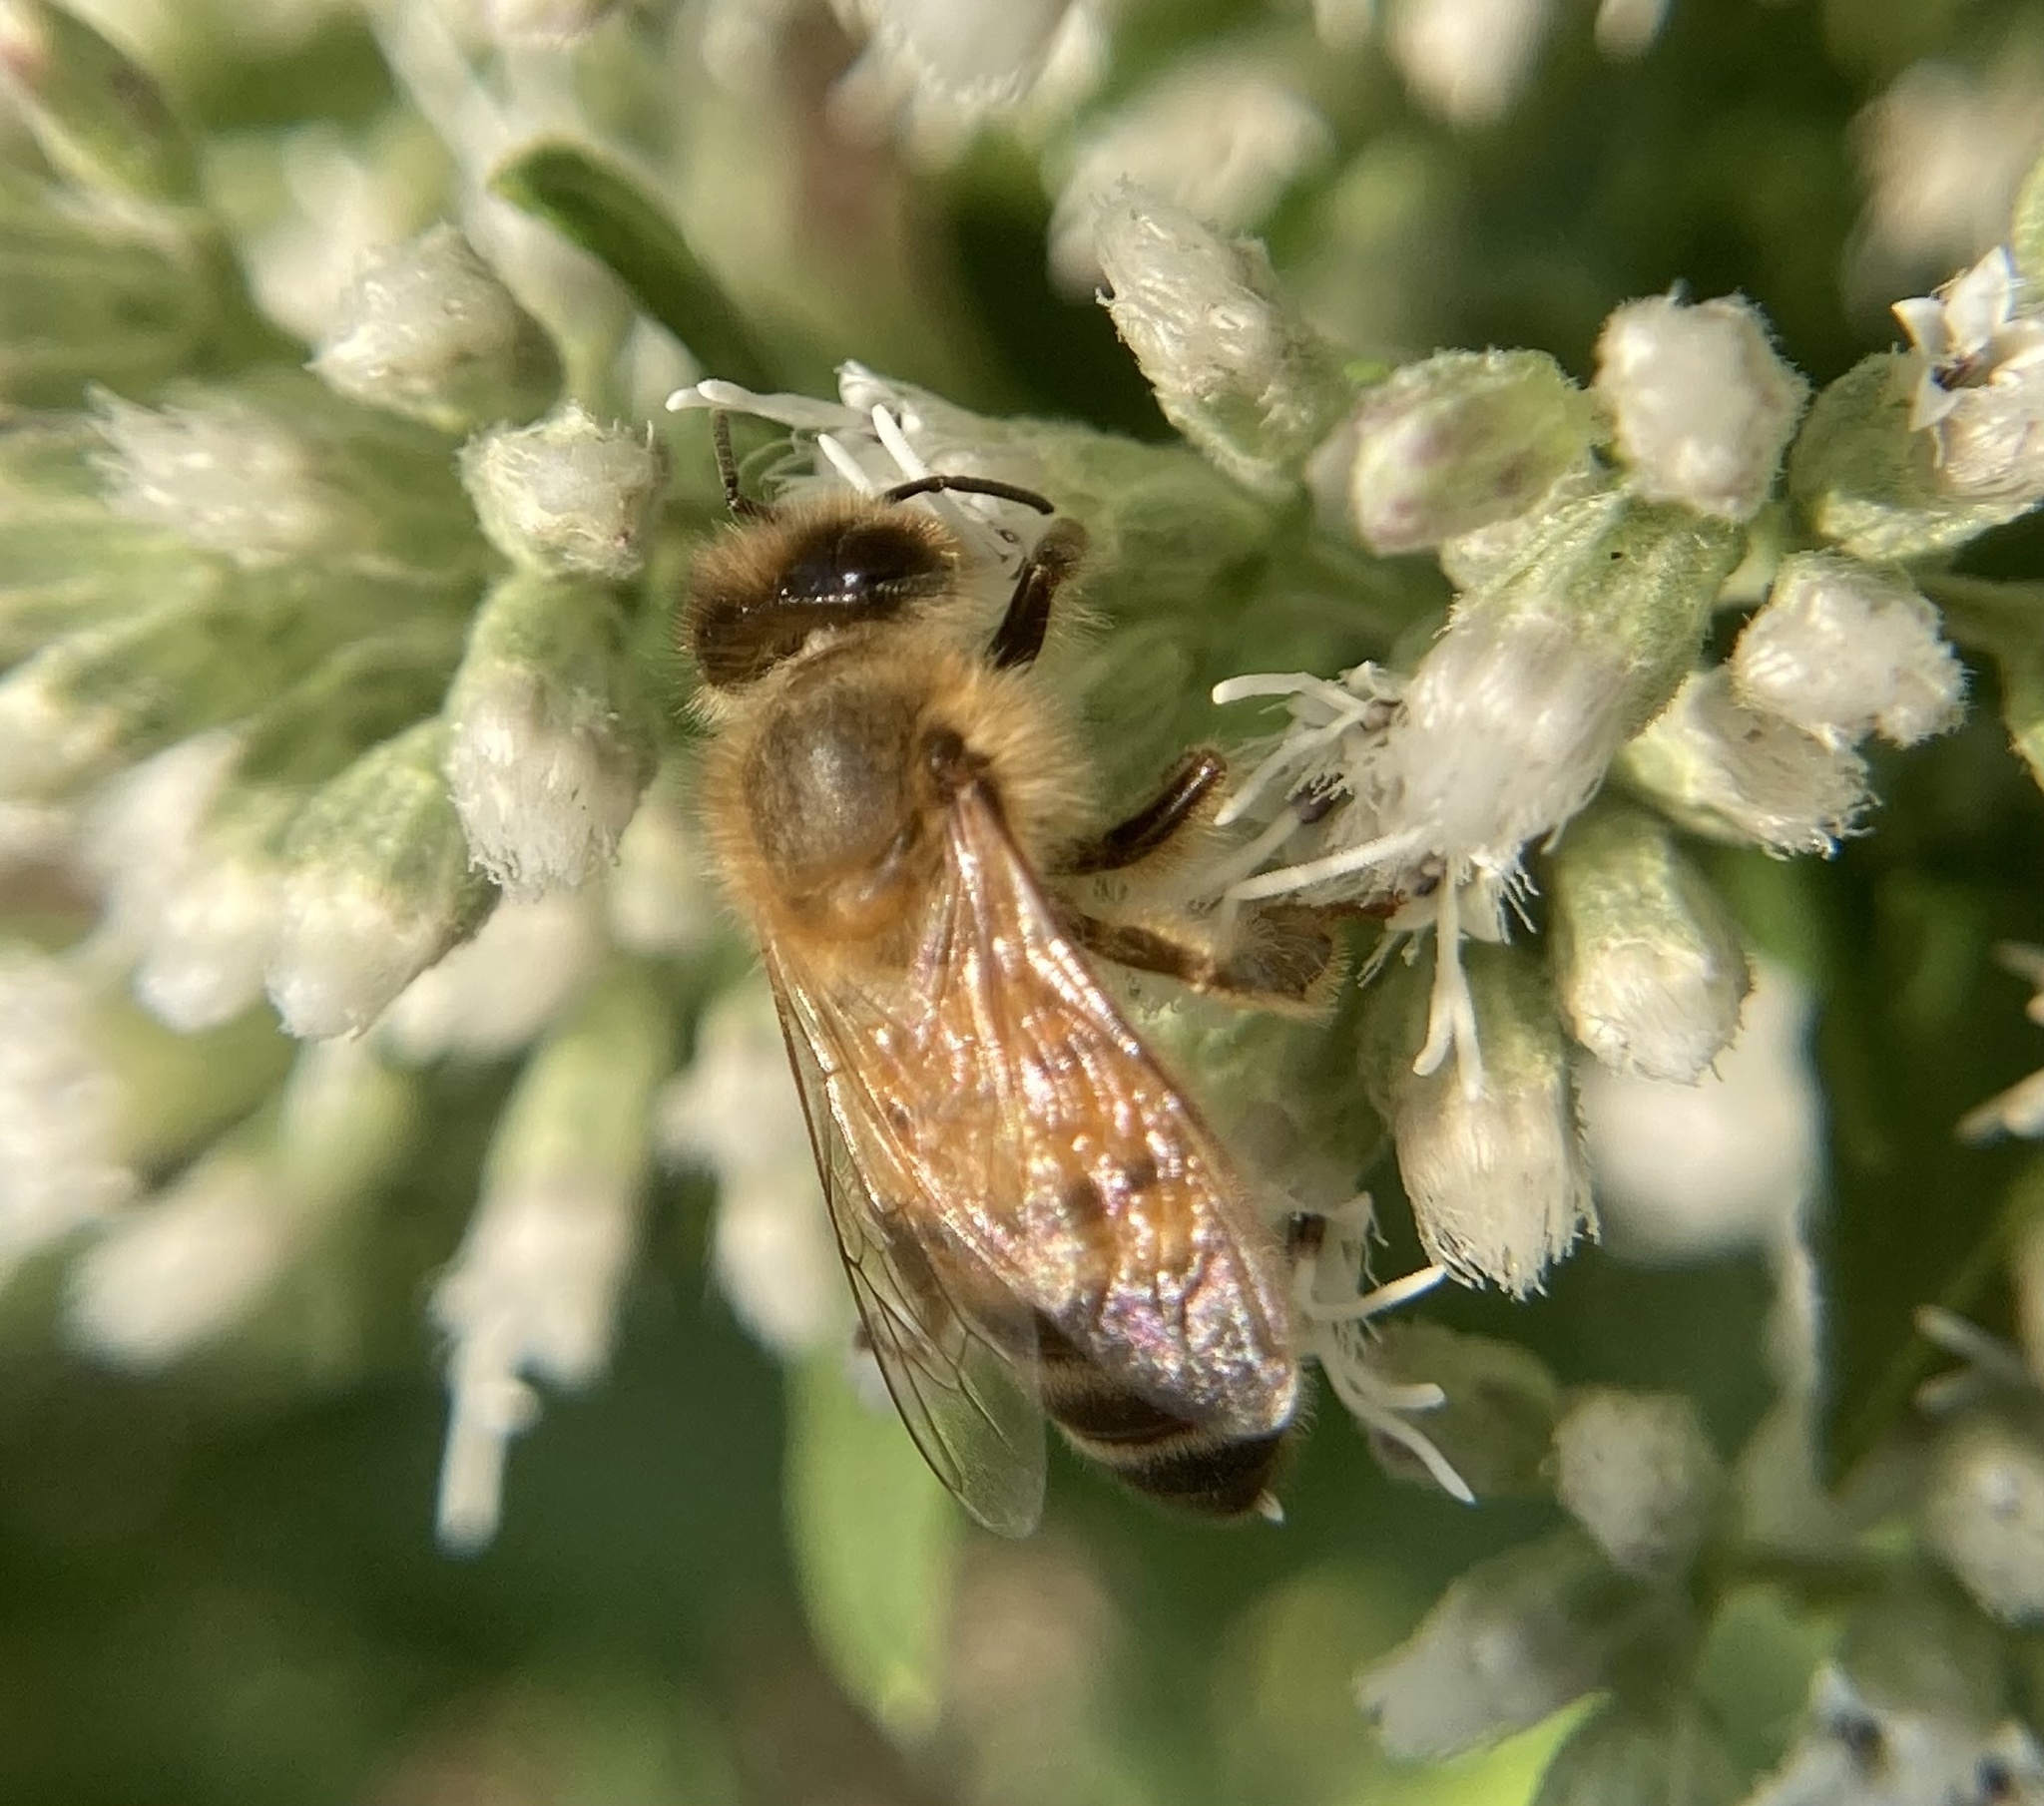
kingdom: Animalia
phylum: Arthropoda
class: Insecta
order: Hymenoptera
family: Apidae
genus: Apis
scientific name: Apis mellifera
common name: Honey bee
